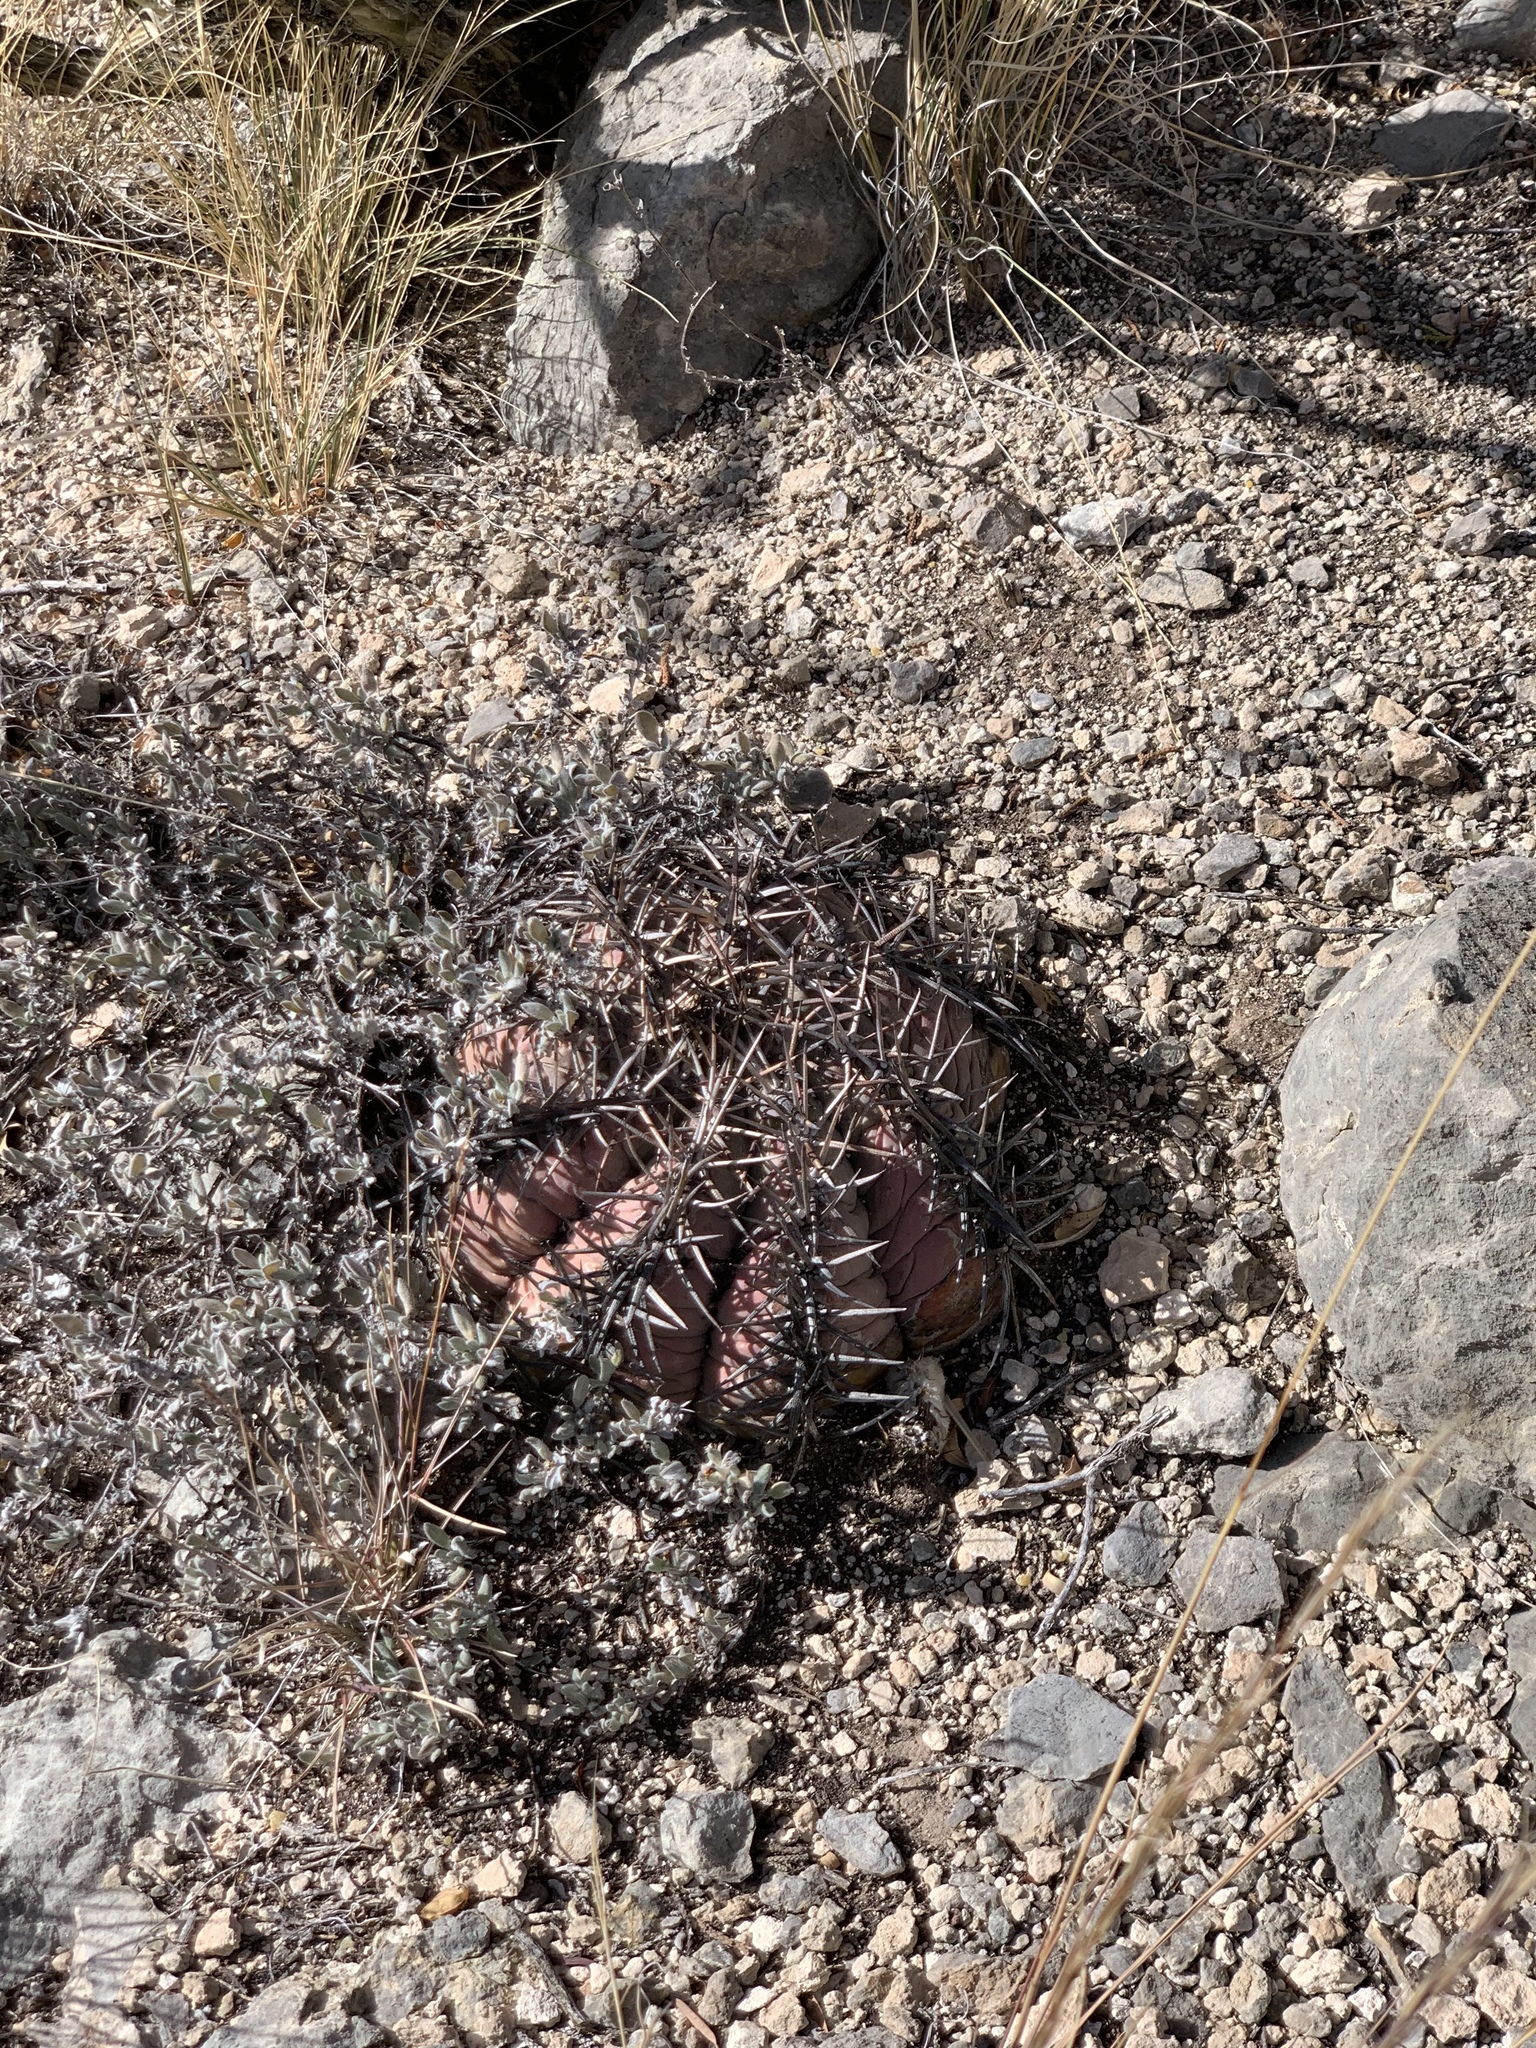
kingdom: Plantae
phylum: Tracheophyta
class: Magnoliopsida
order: Caryophyllales
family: Cactaceae
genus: Echinocactus
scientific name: Echinocactus horizonthalonius
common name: Devilshead
